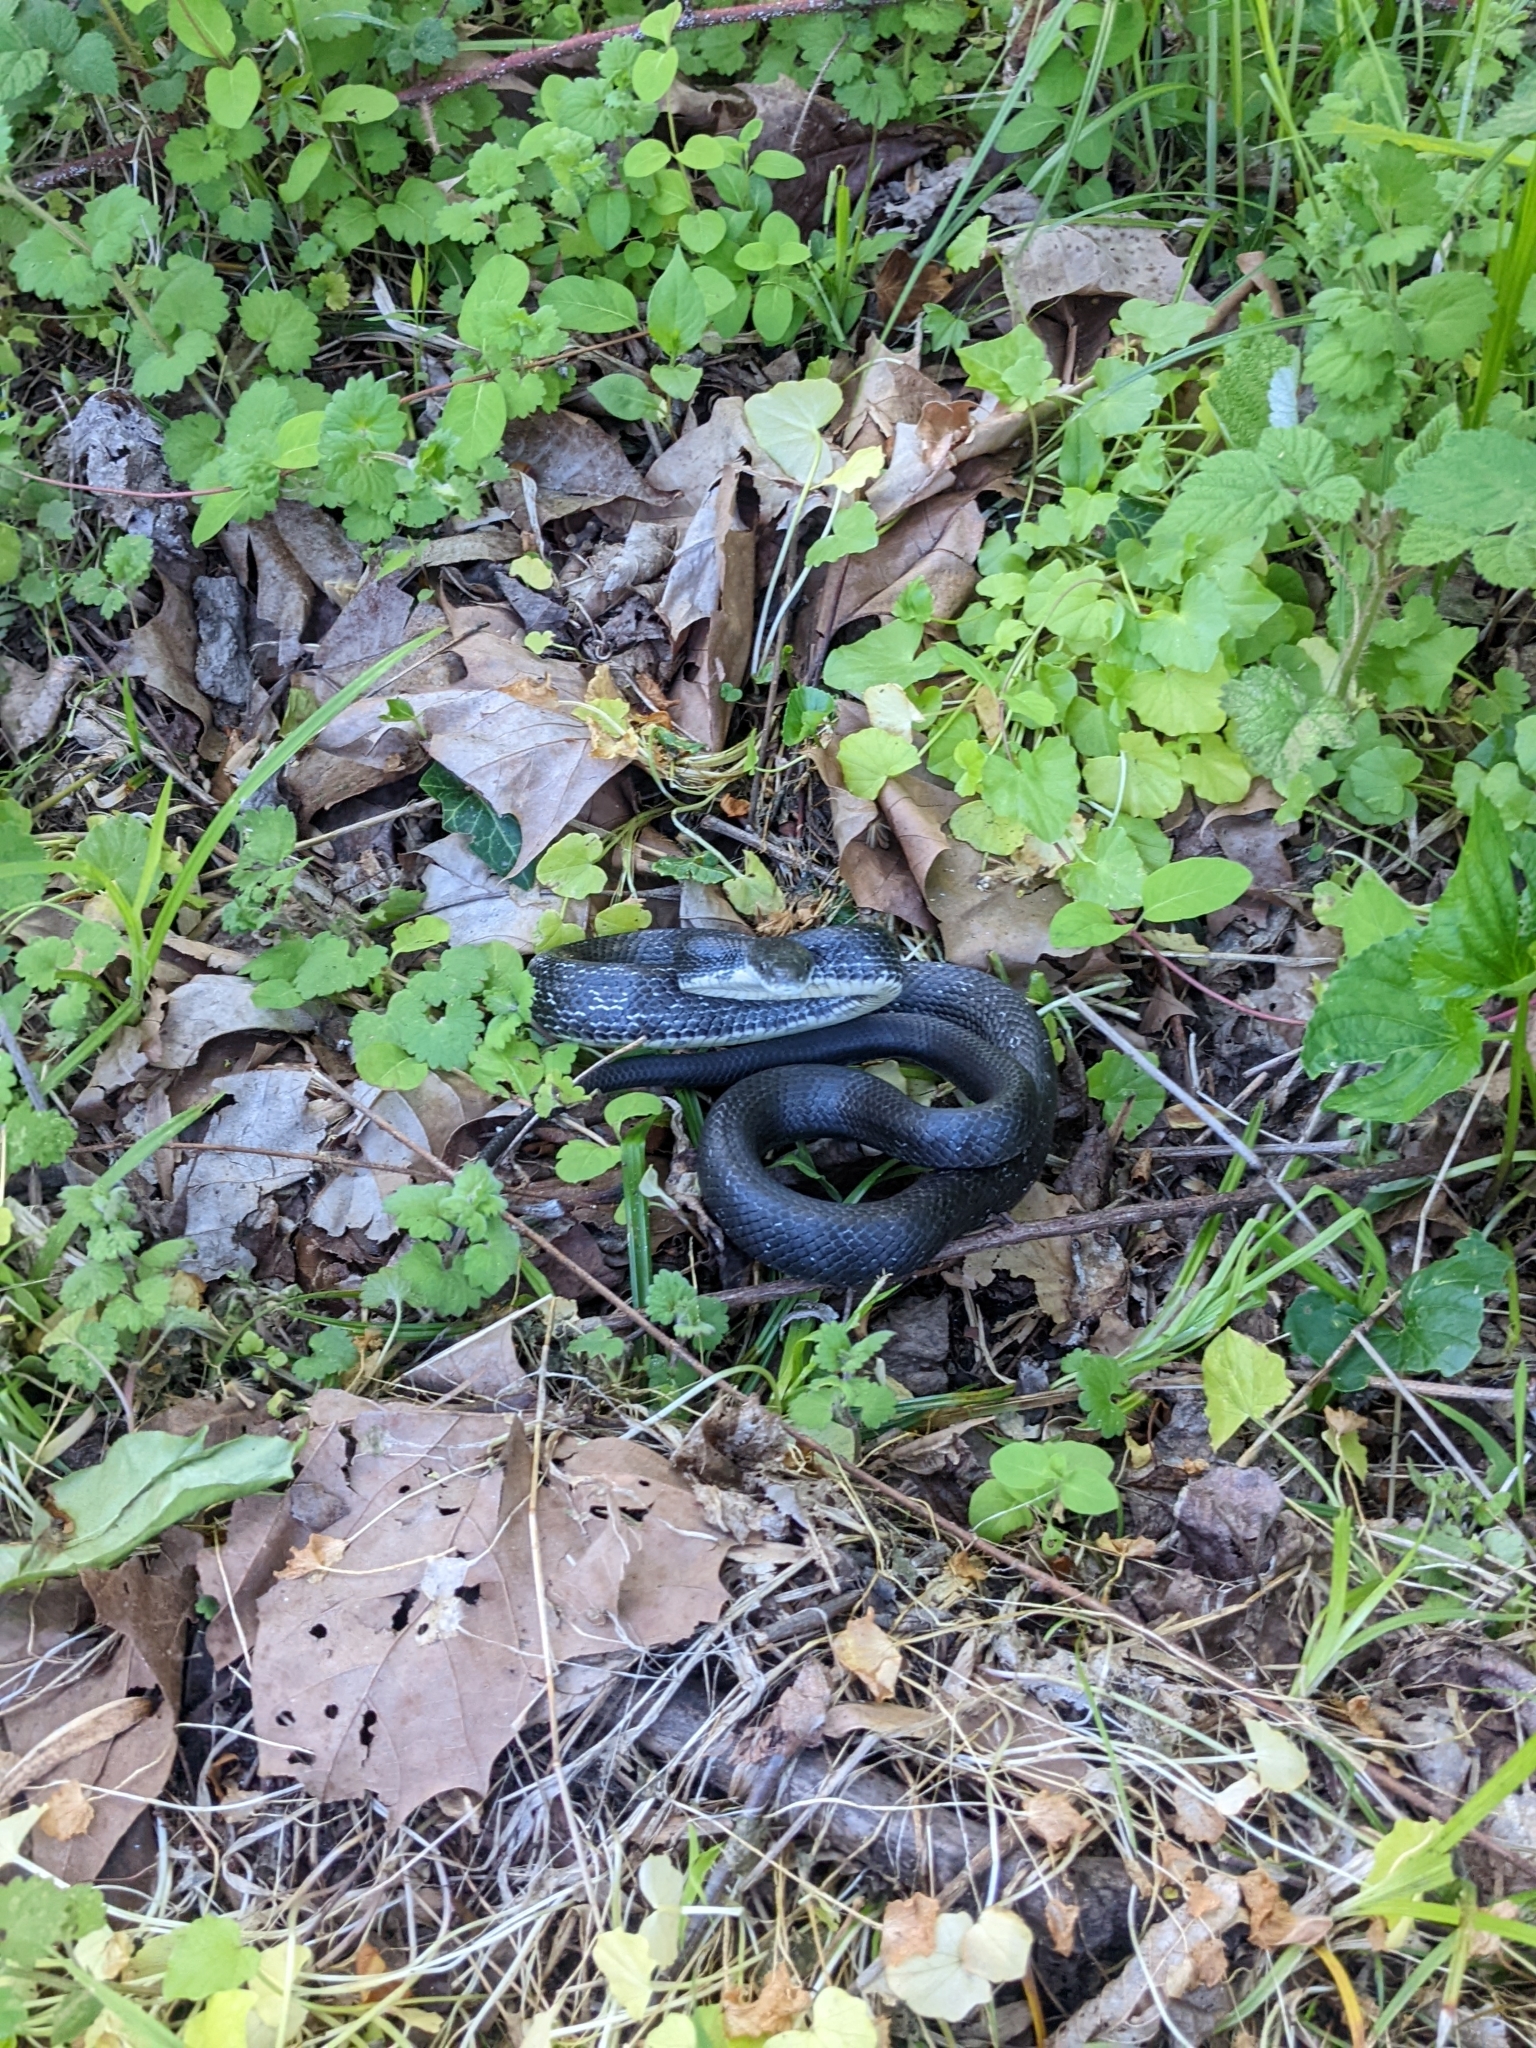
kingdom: Animalia
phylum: Chordata
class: Squamata
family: Colubridae
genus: Pantherophis
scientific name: Pantherophis alleghaniensis
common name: Eastern rat snake
